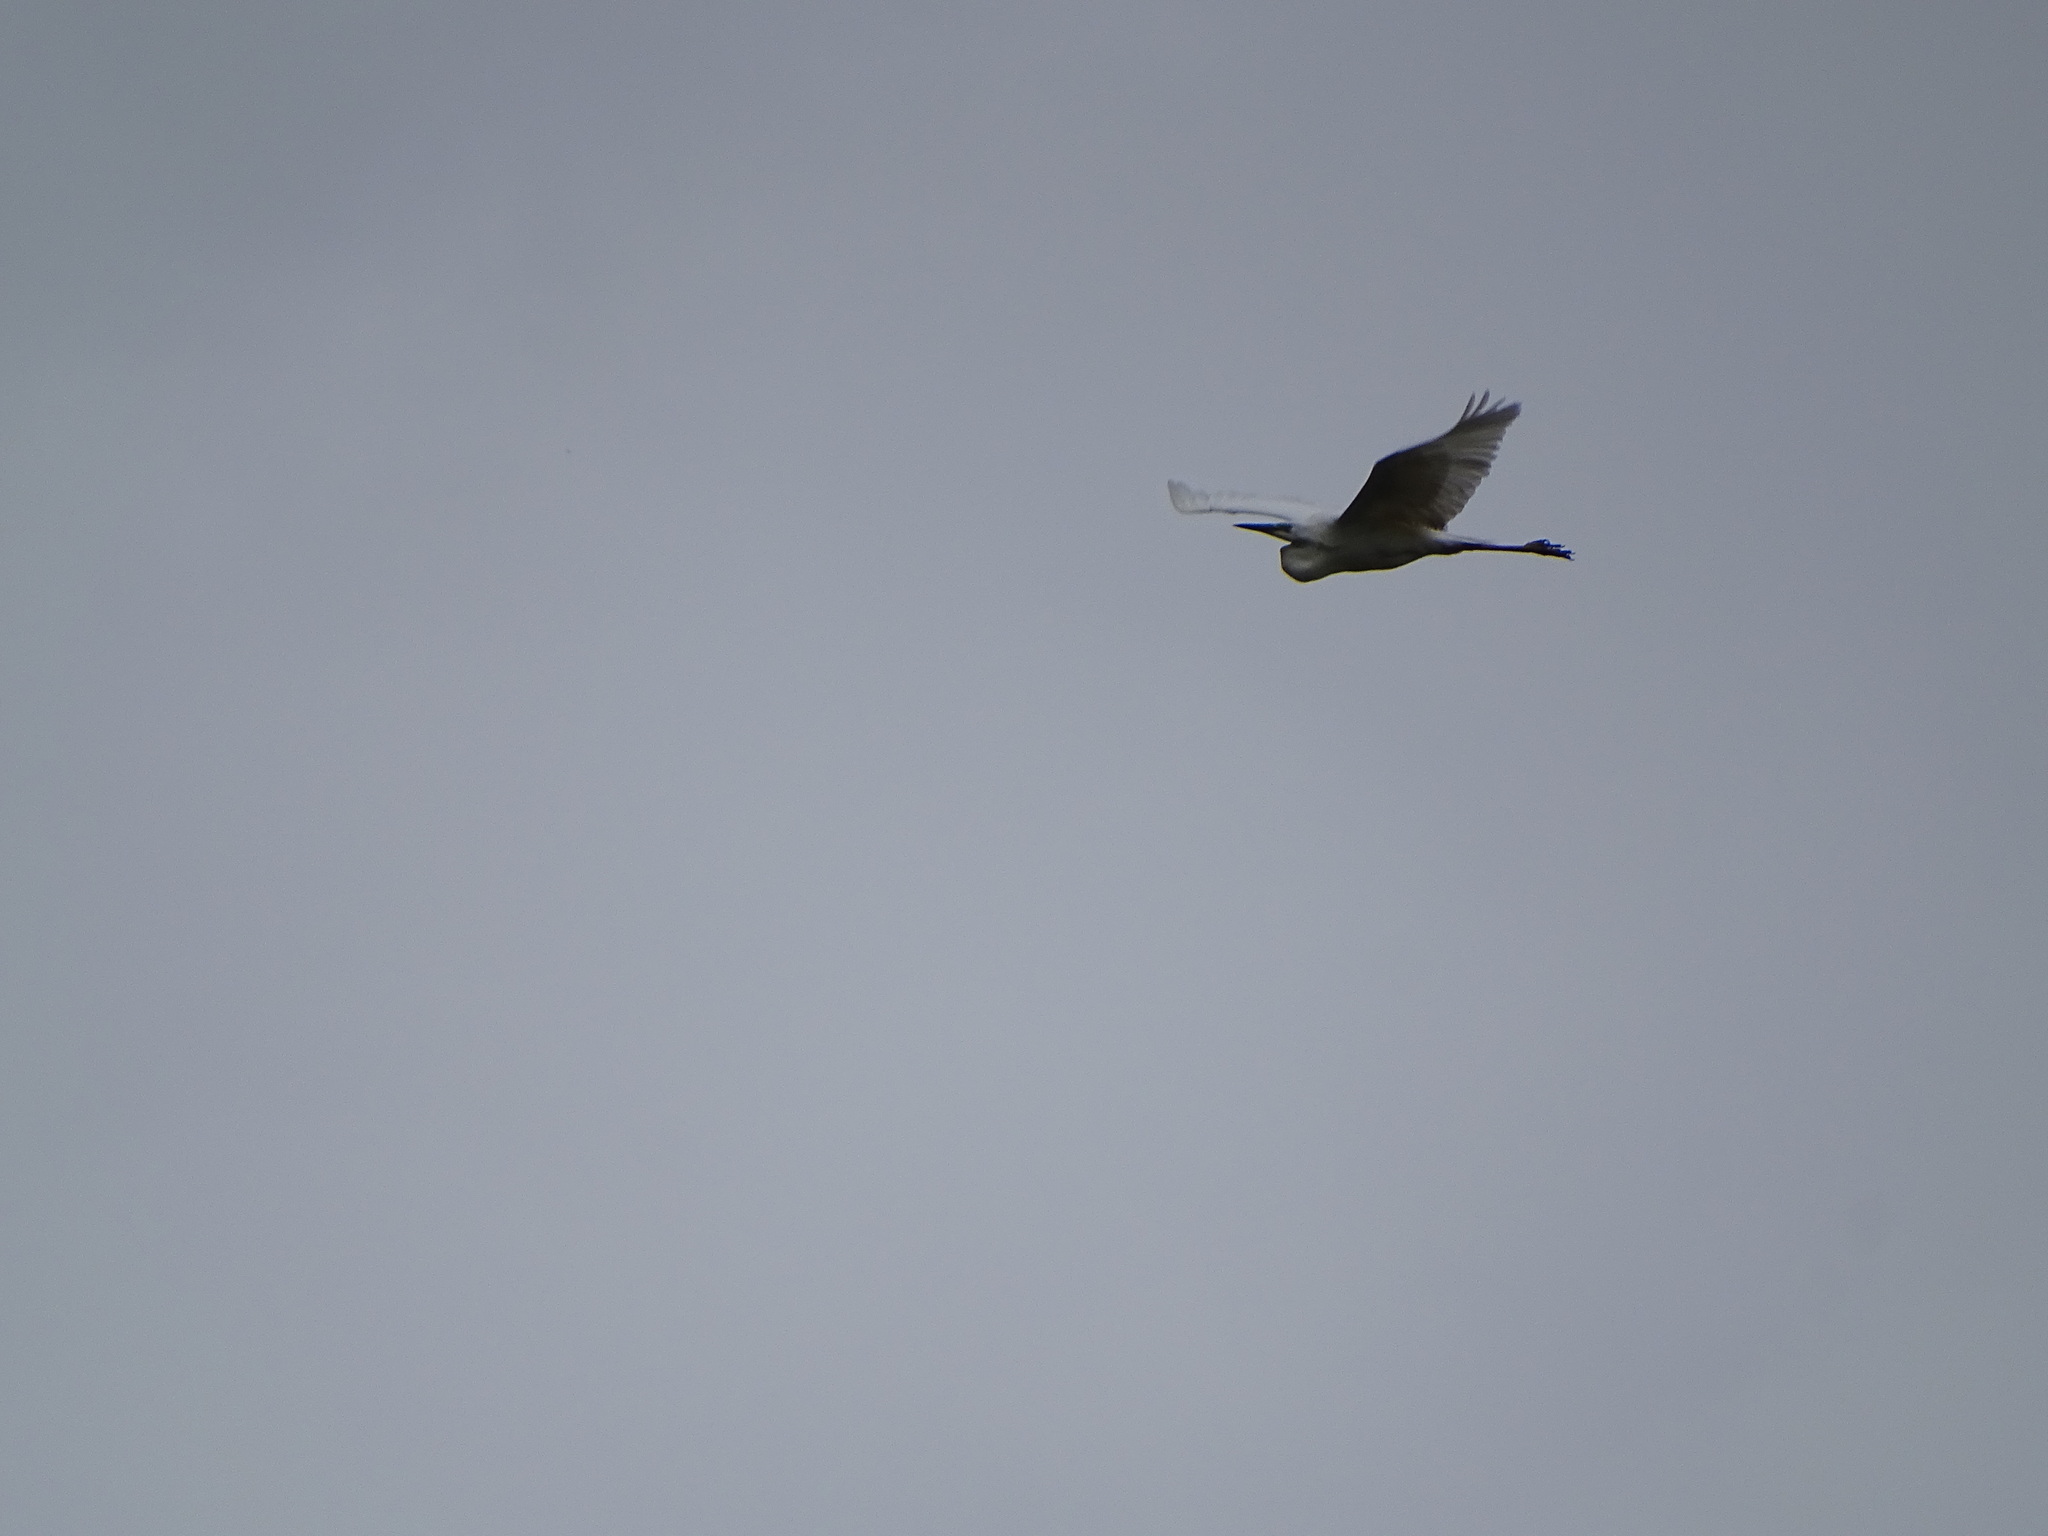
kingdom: Animalia
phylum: Chordata
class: Aves
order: Pelecaniformes
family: Ardeidae
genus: Ardea
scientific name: Ardea alba
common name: Great egret
